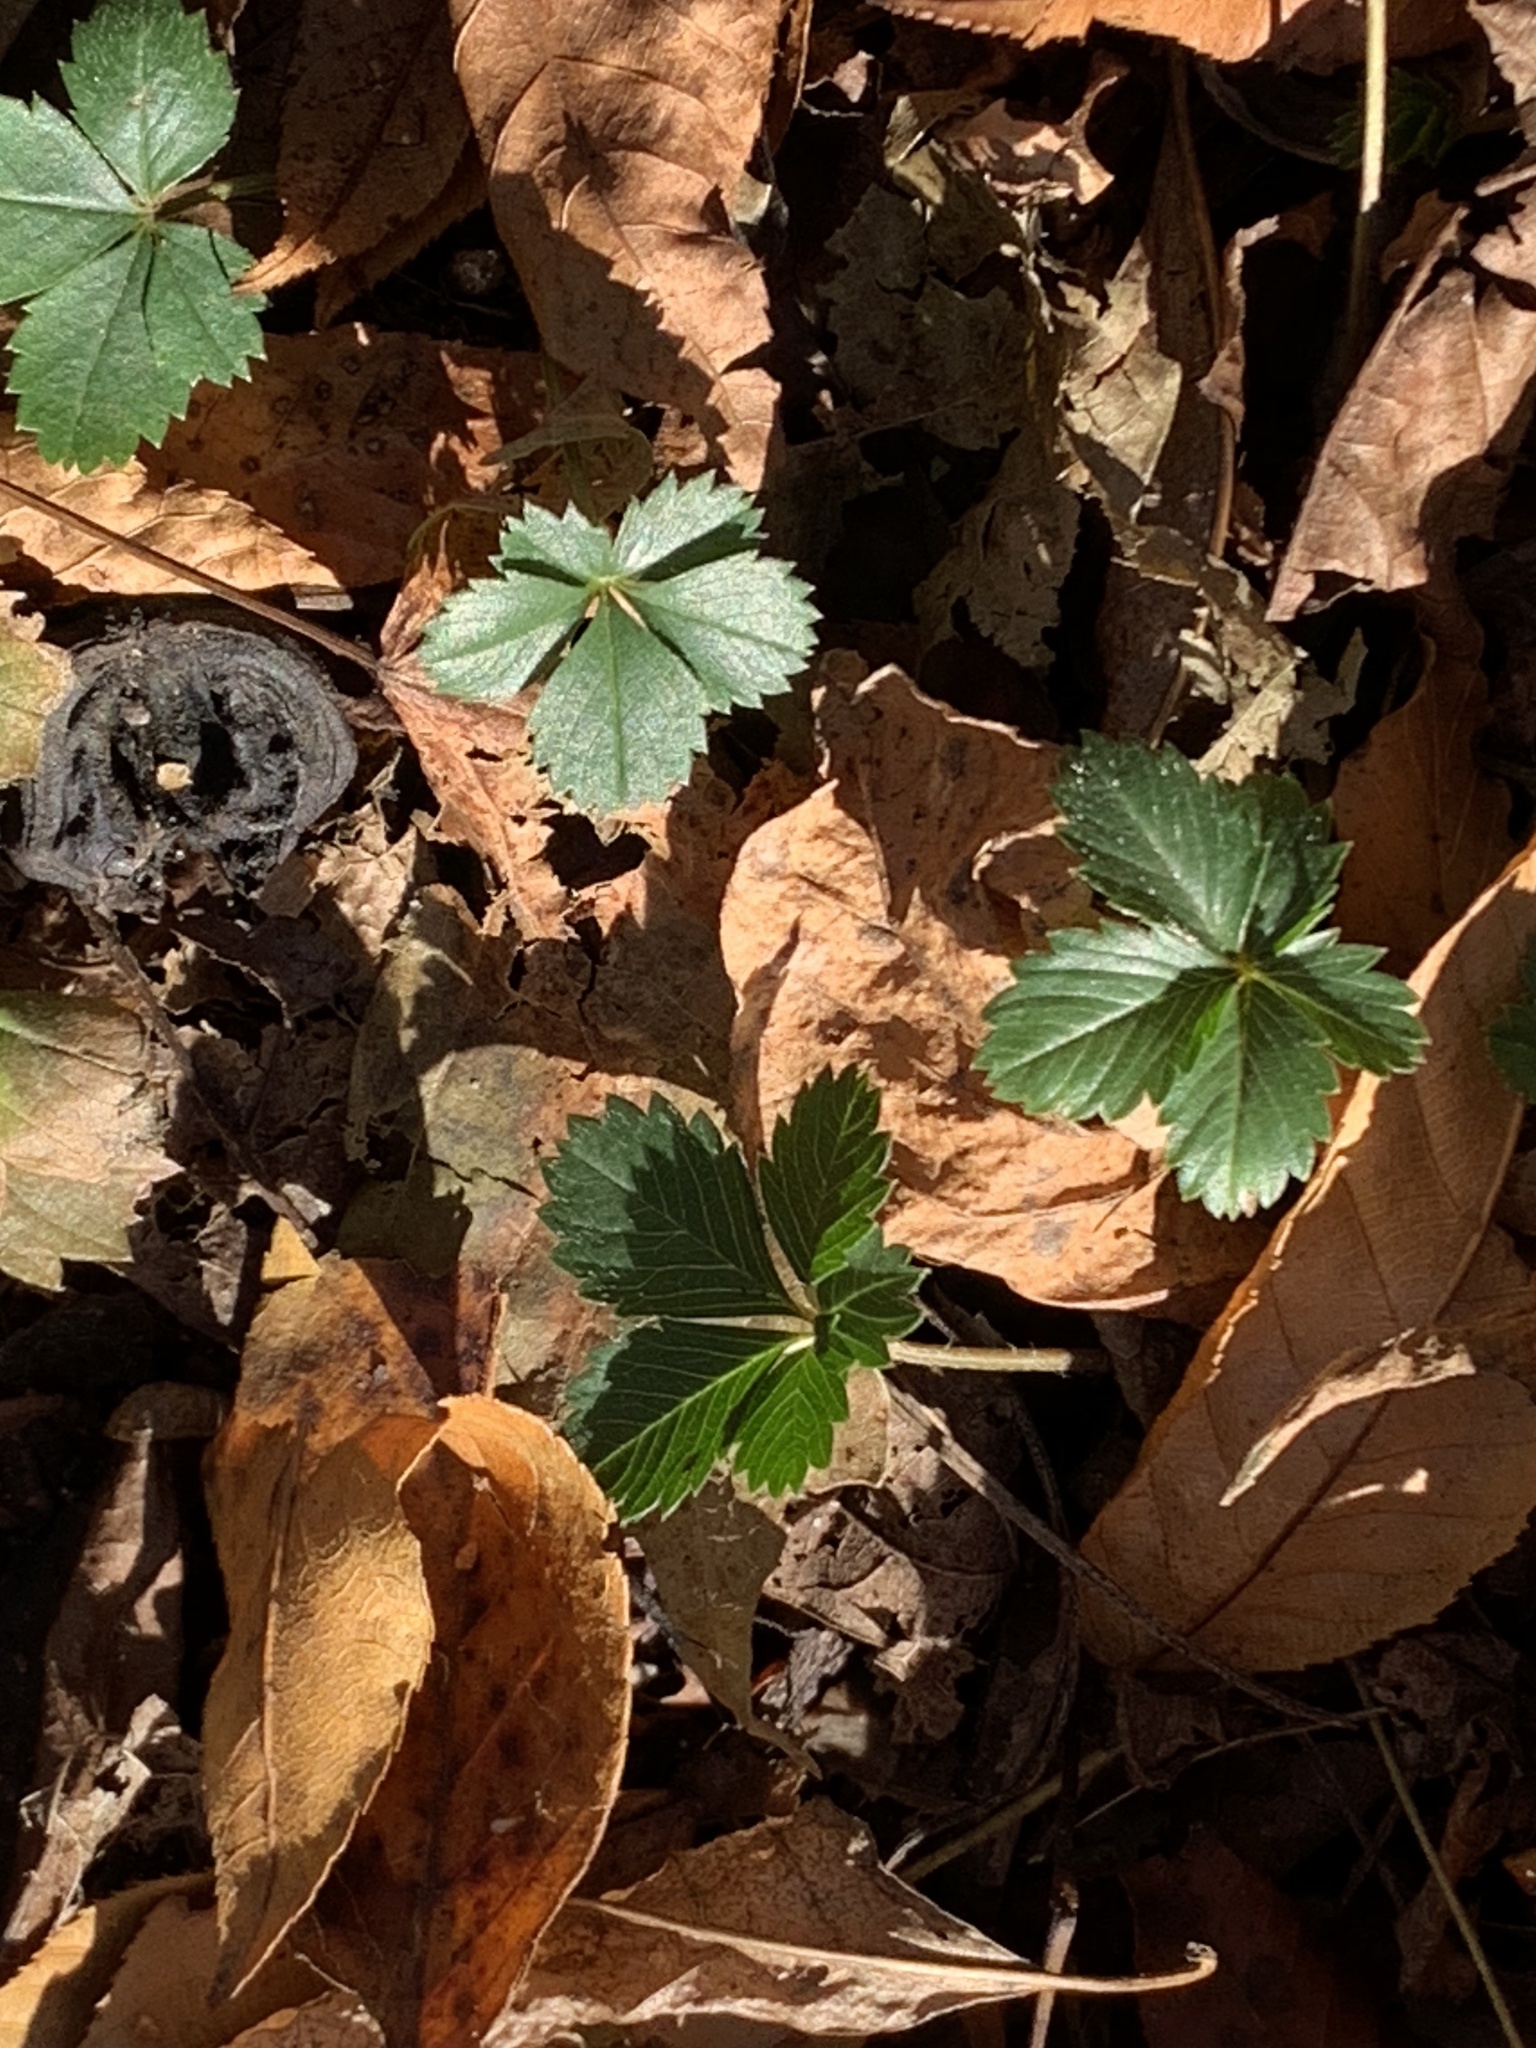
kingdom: Plantae
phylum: Tracheophyta
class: Magnoliopsida
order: Rosales
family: Rosaceae
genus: Potentilla
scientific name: Potentilla canadensis
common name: Canada cinquefoil
